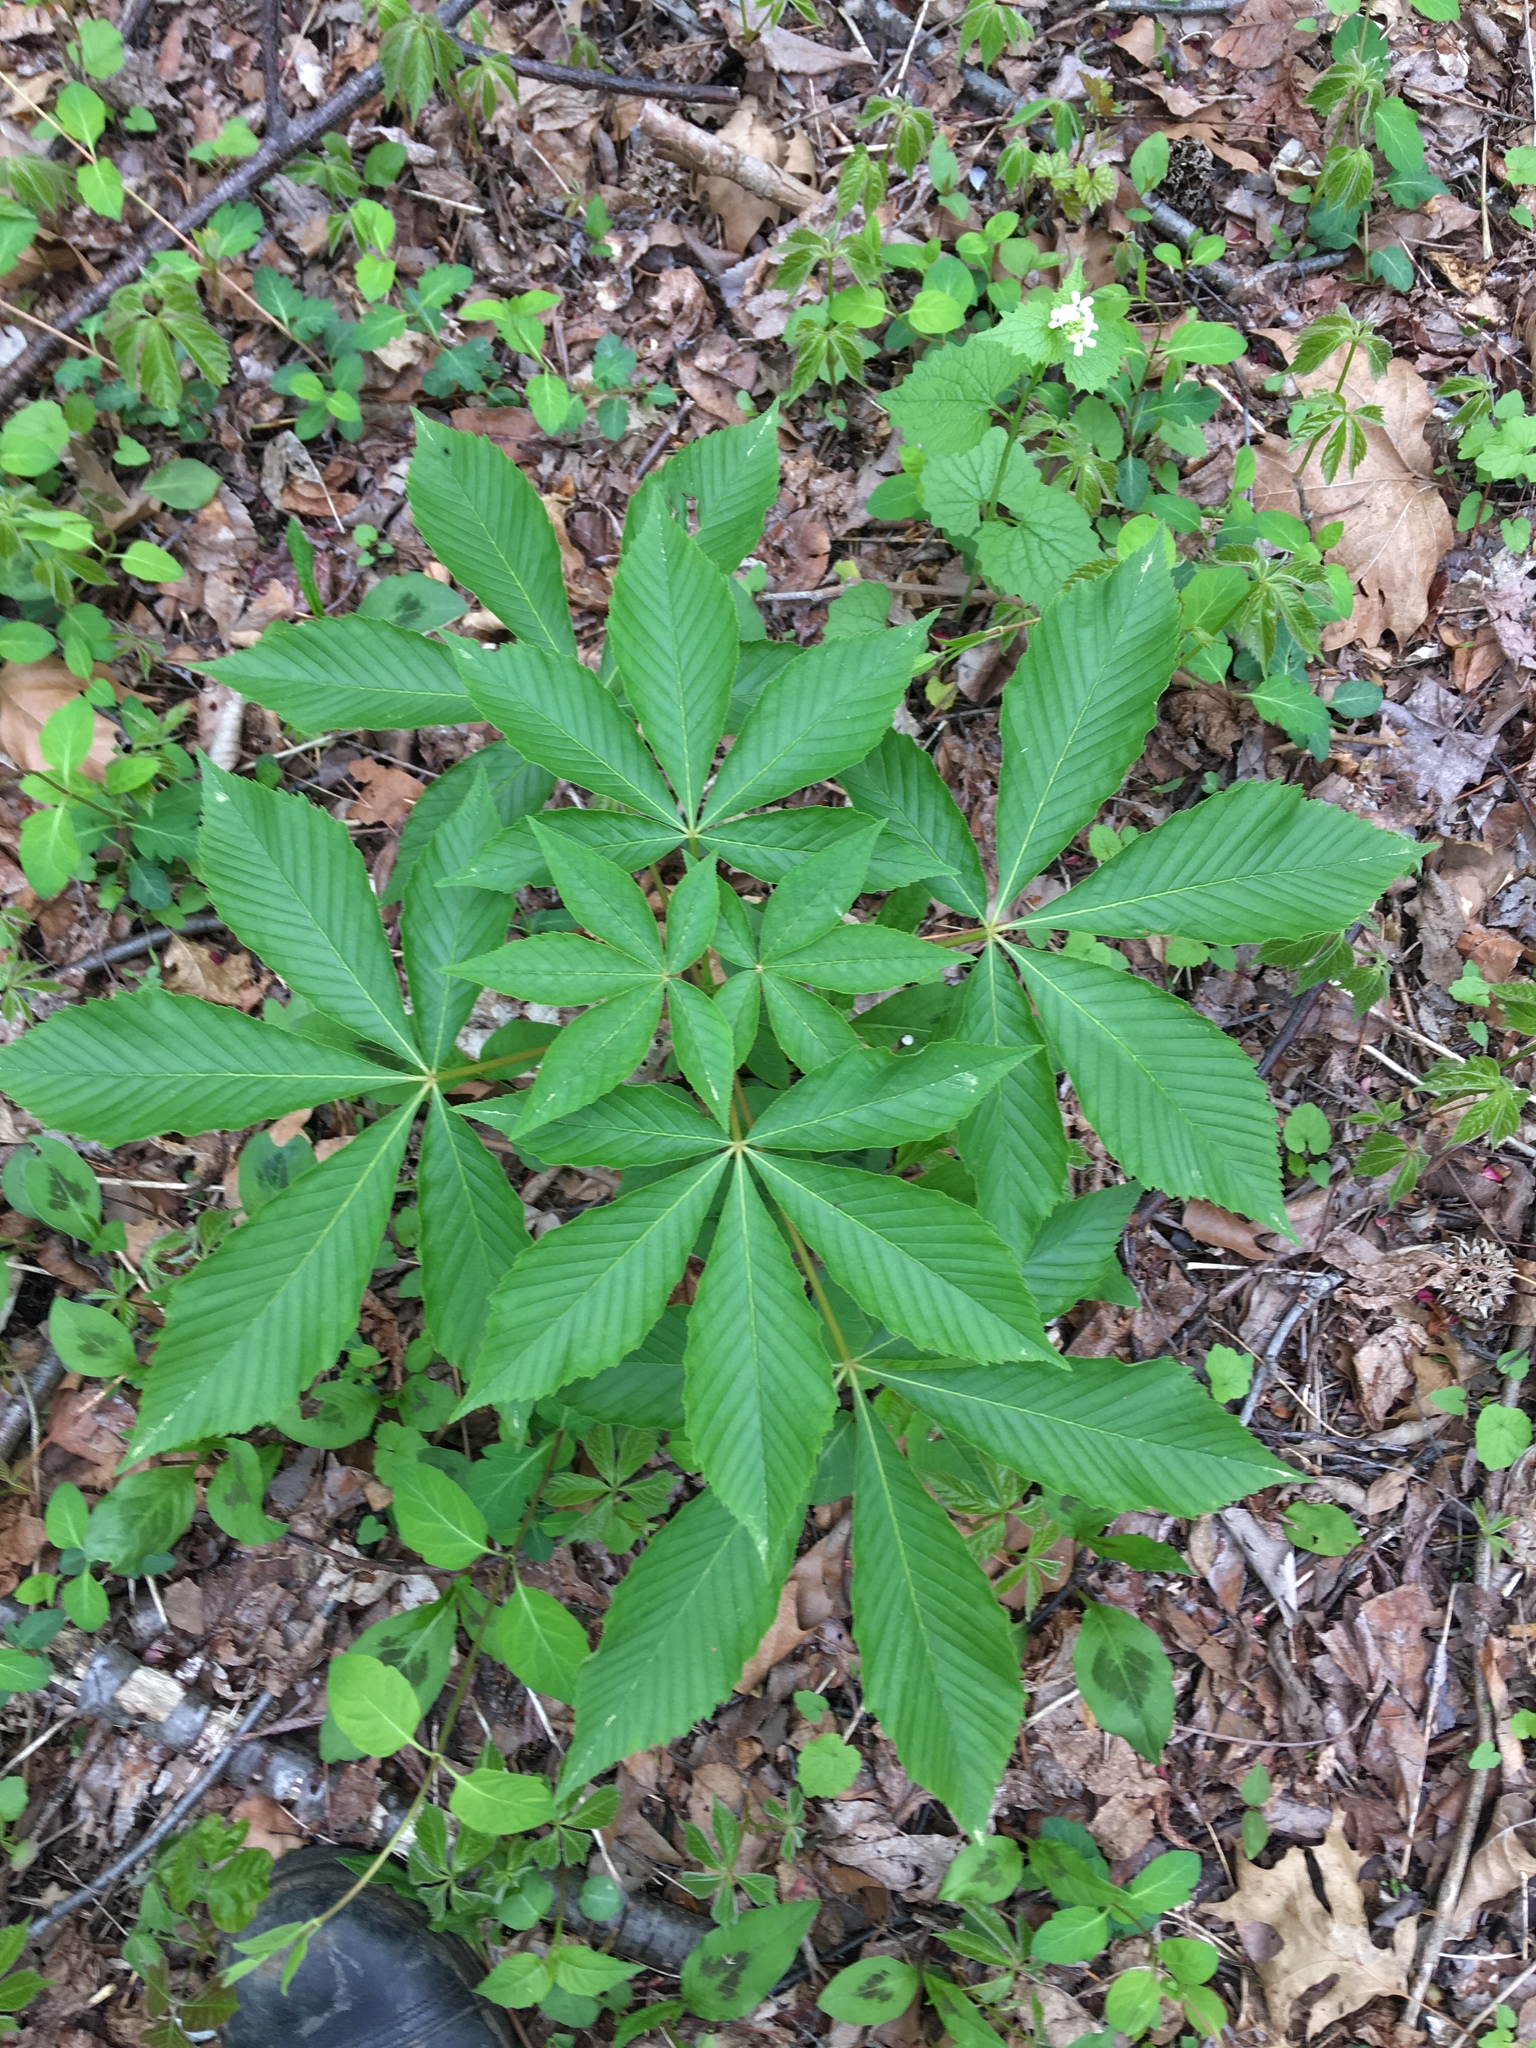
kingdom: Plantae
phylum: Tracheophyta
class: Magnoliopsida
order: Sapindales
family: Sapindaceae
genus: Aesculus
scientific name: Aesculus glabra
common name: Ohio buckeye
